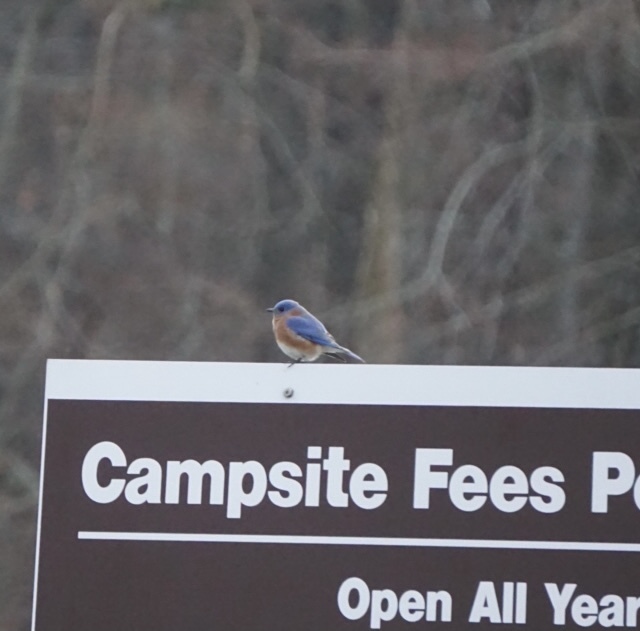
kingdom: Animalia
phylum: Chordata
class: Aves
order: Passeriformes
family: Turdidae
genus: Sialia
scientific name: Sialia sialis
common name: Eastern bluebird
